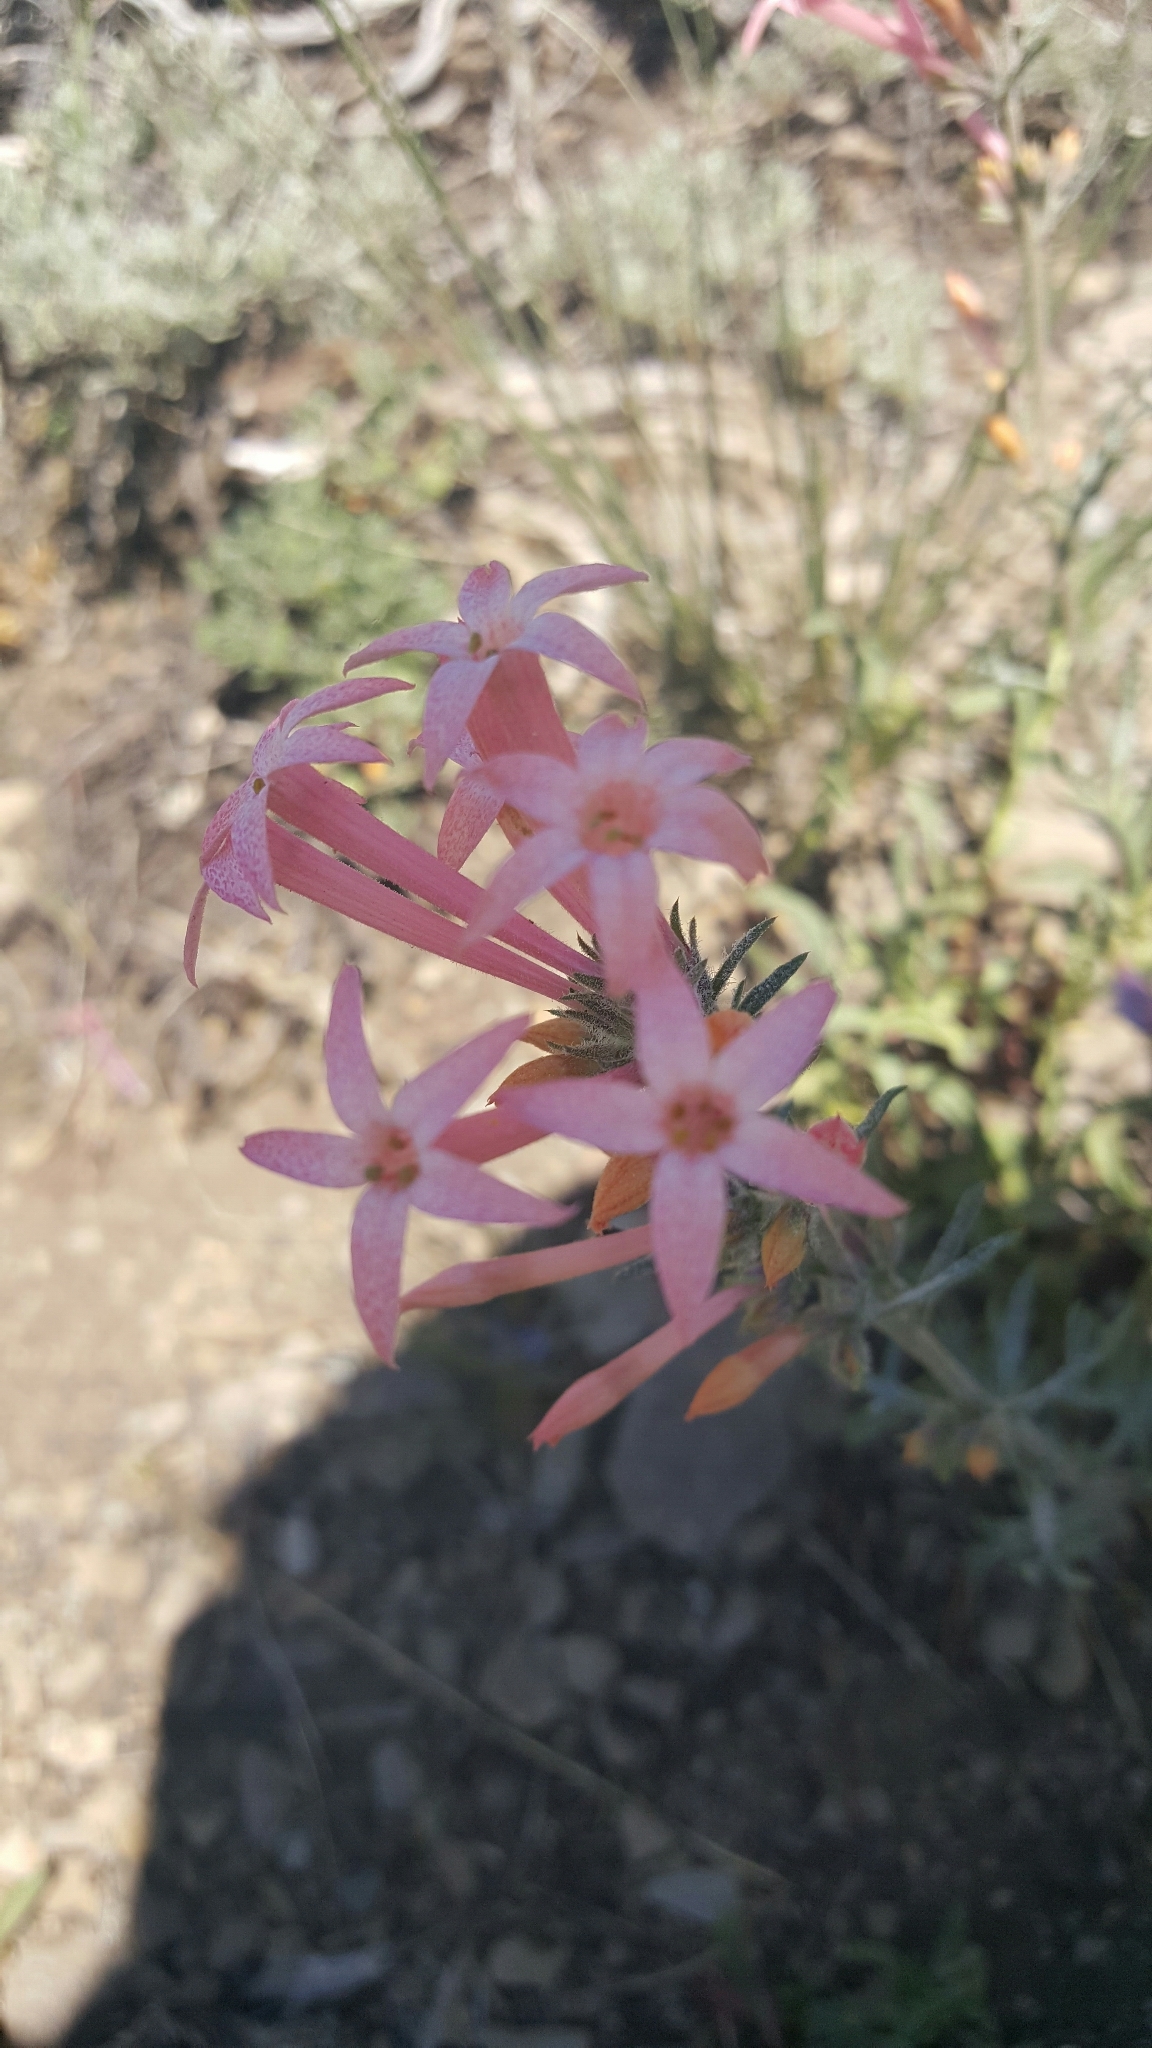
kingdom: Plantae
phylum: Tracheophyta
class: Magnoliopsida
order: Ericales
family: Polemoniaceae
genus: Ipomopsis
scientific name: Ipomopsis tenuituba
